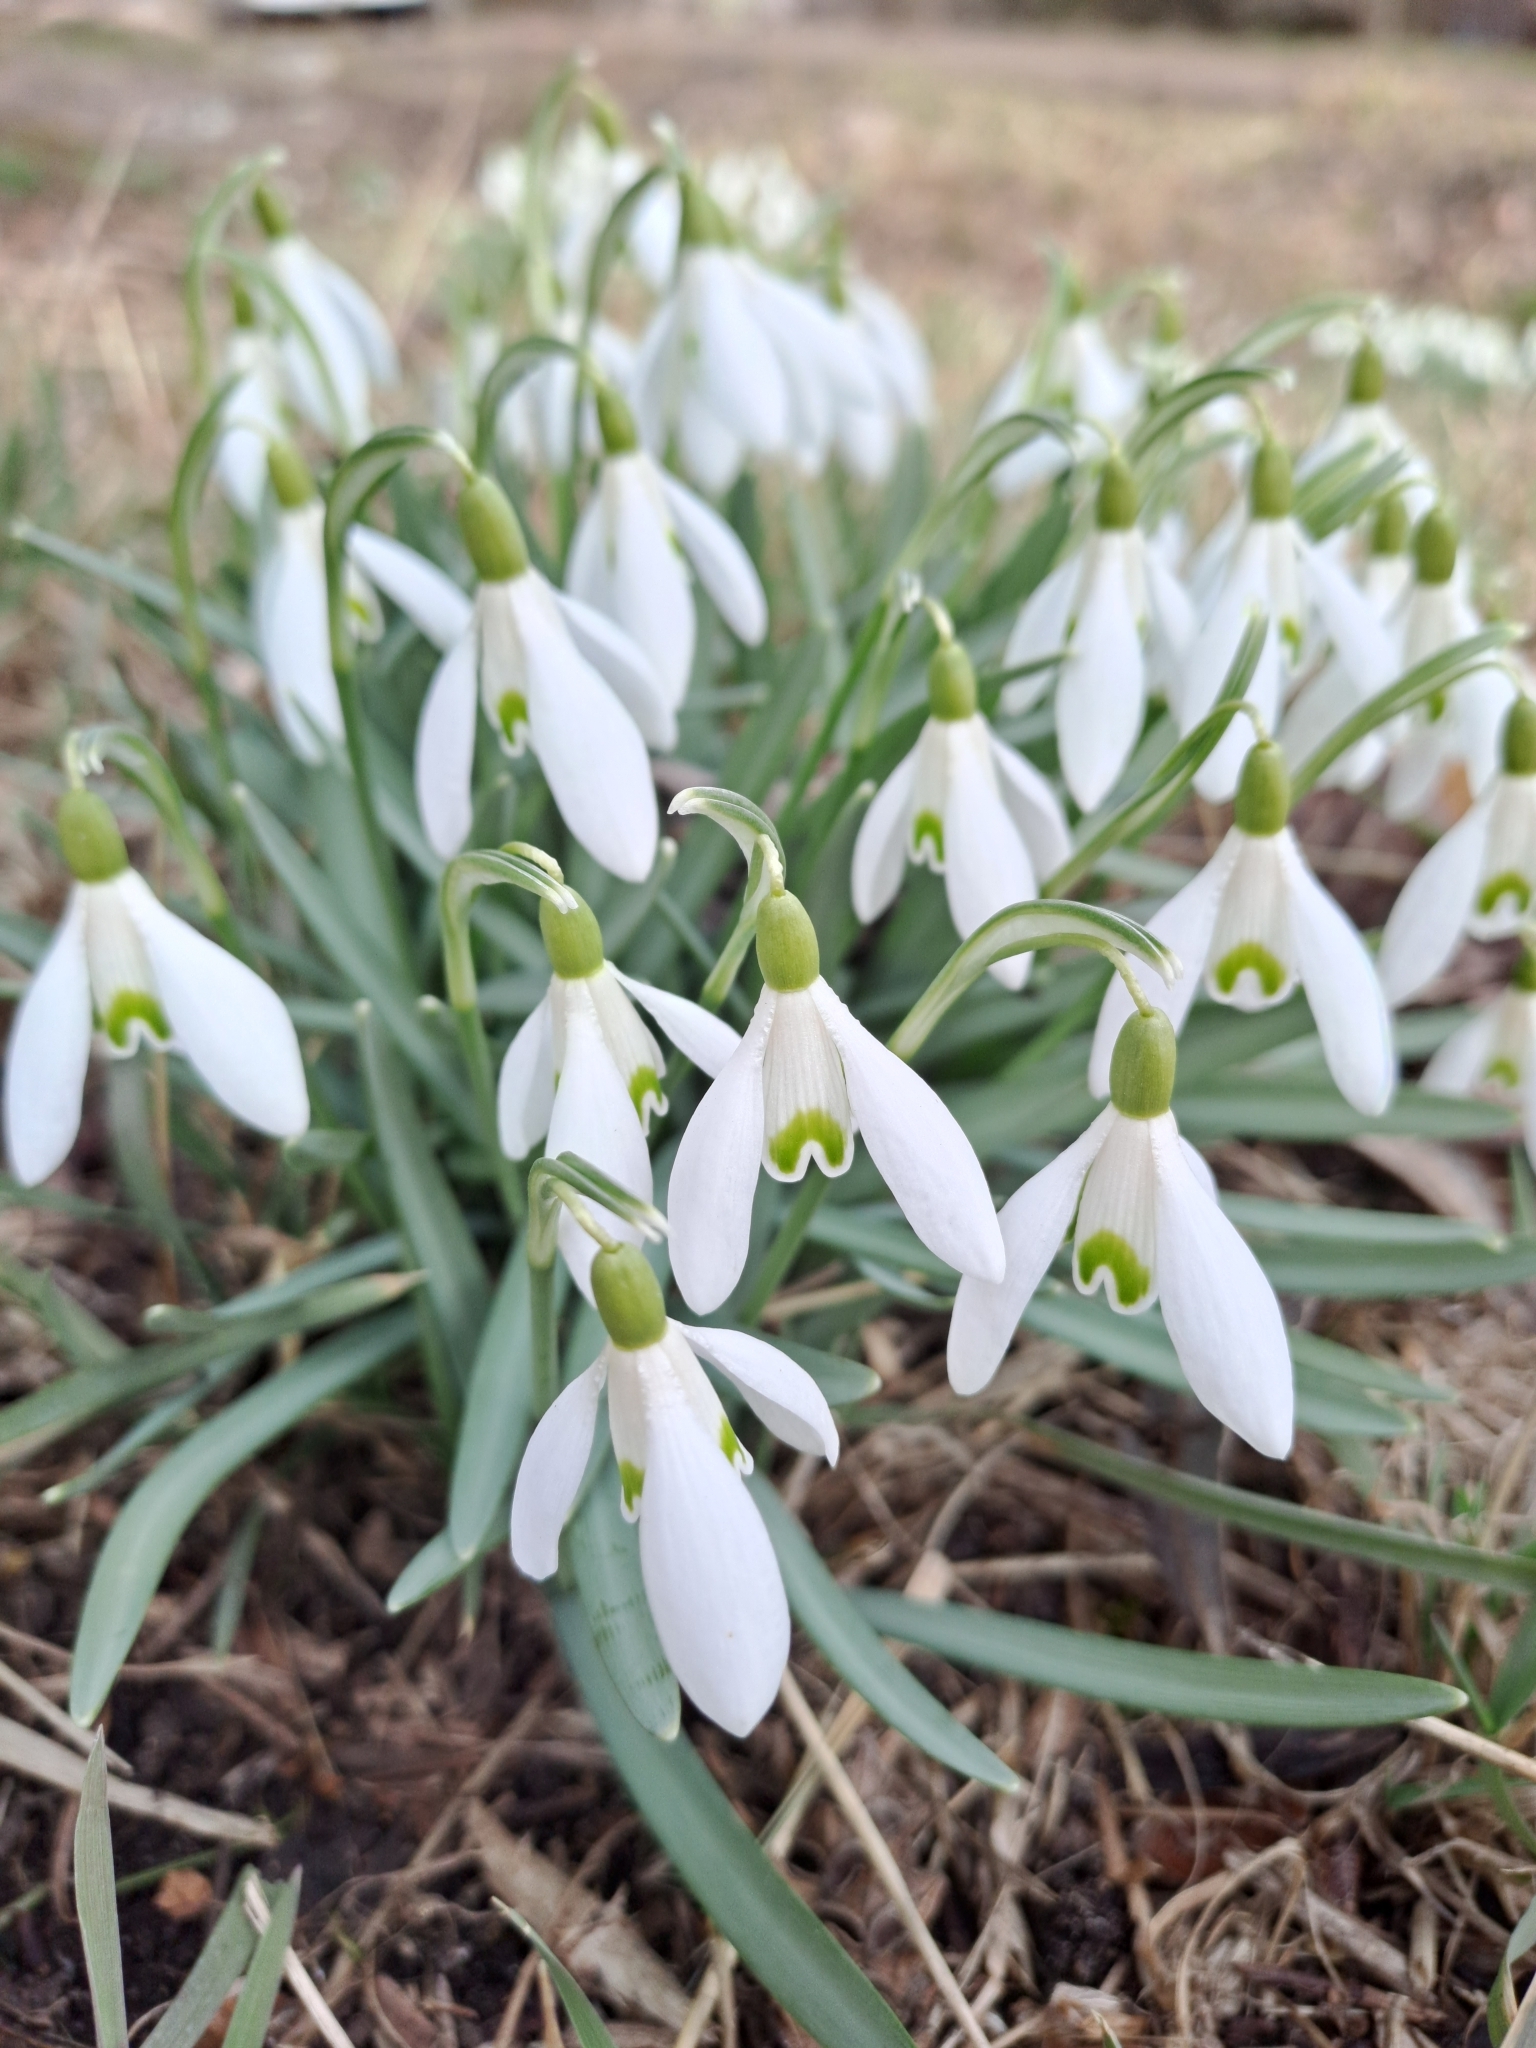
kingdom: Plantae
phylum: Tracheophyta
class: Liliopsida
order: Asparagales
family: Amaryllidaceae
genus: Galanthus
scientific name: Galanthus nivalis
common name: Snowdrop
